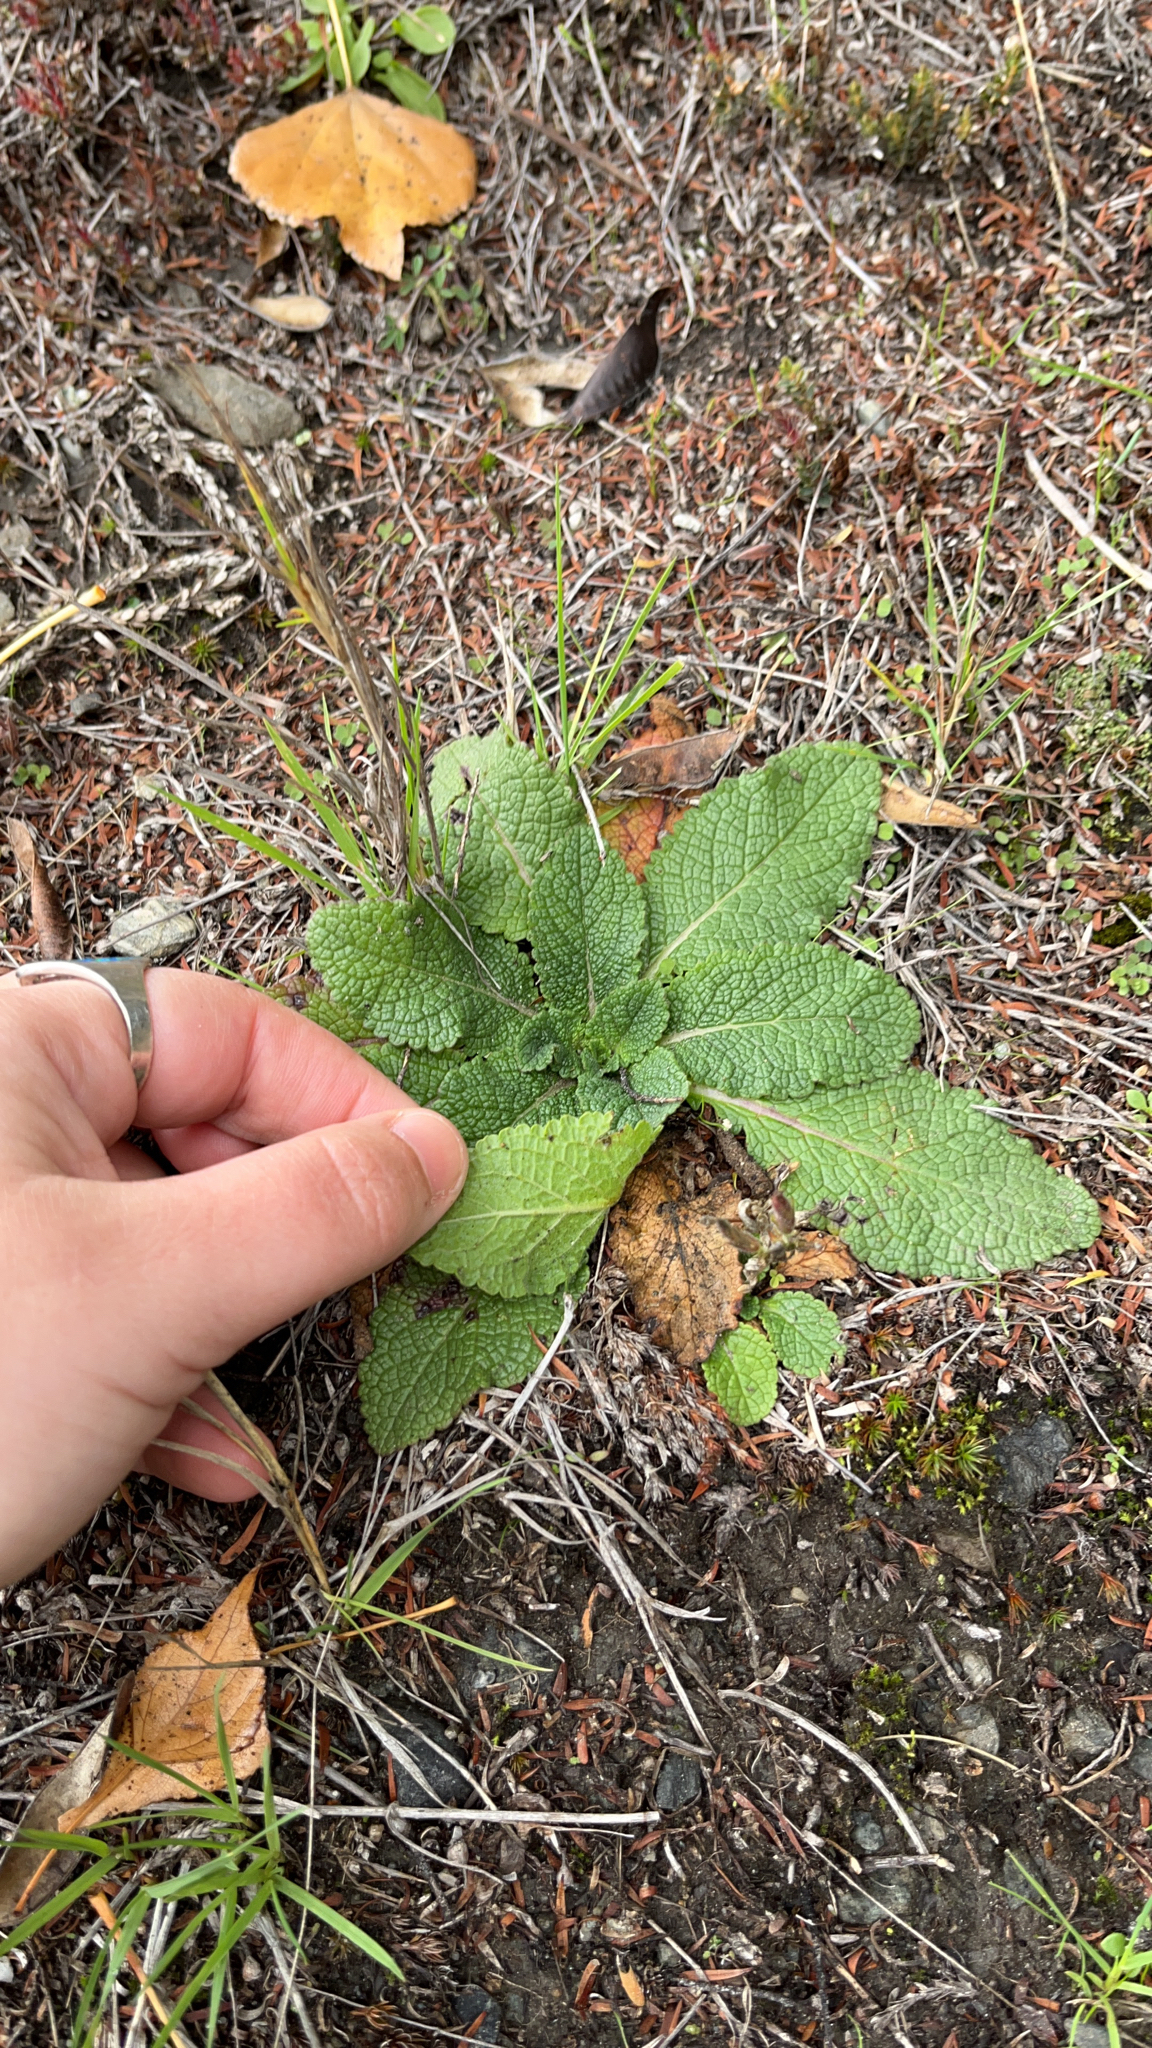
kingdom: Plantae
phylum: Tracheophyta
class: Magnoliopsida
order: Lamiales
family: Scrophulariaceae
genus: Verbascum
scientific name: Verbascum virgatum
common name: Twiggy mullein
